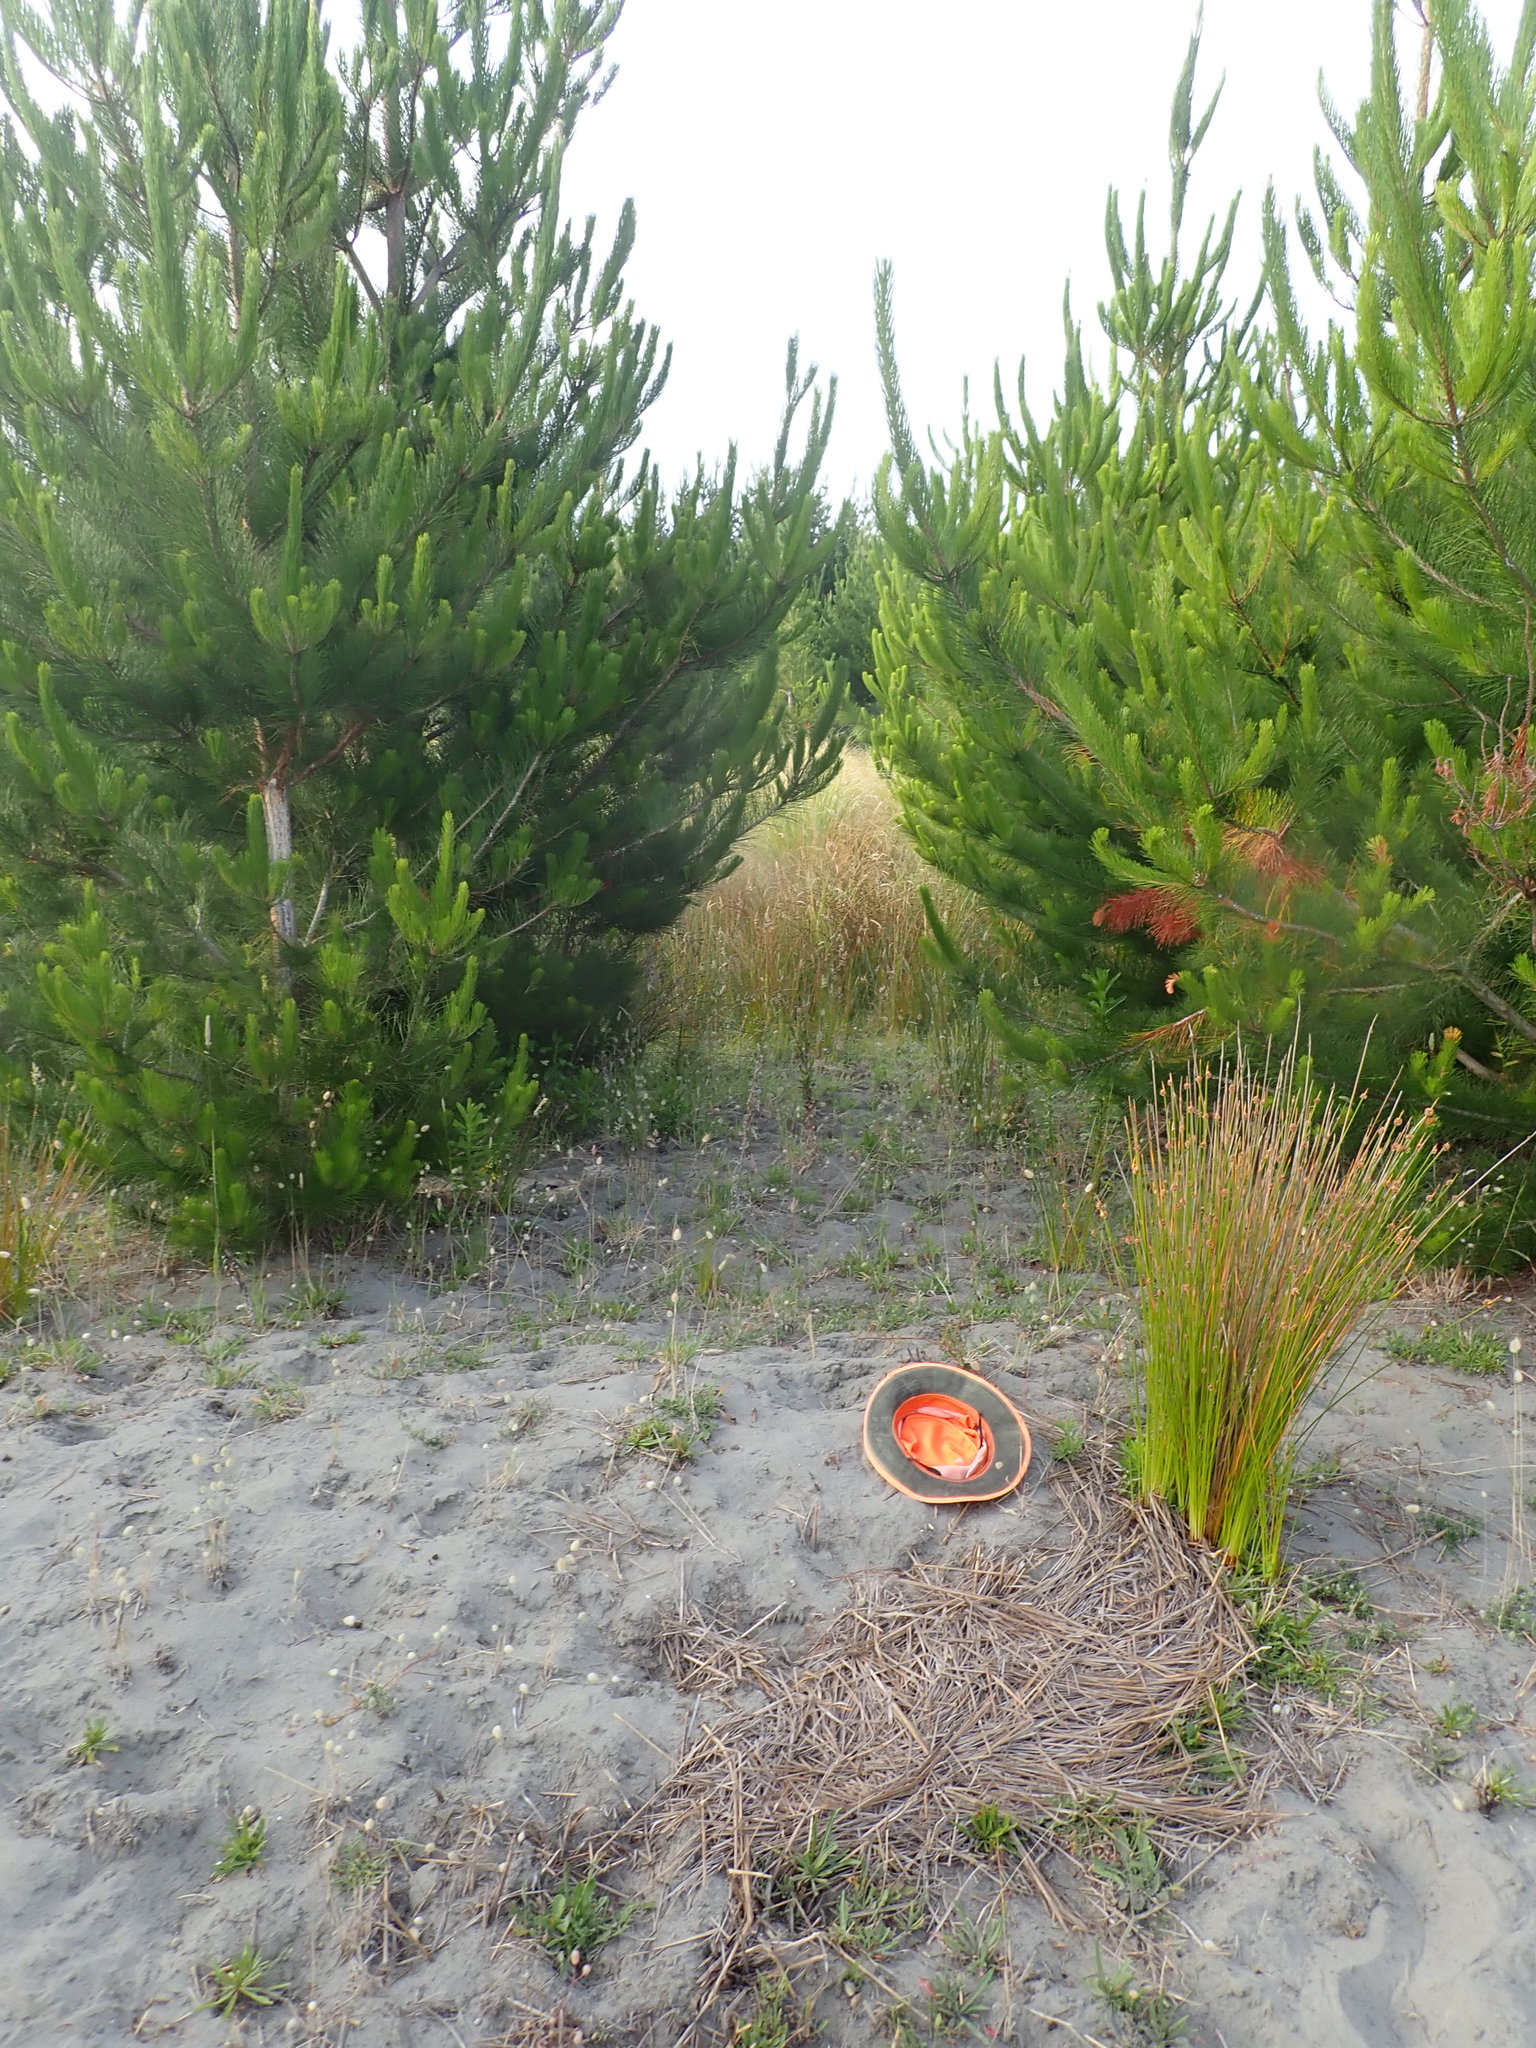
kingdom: Plantae
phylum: Tracheophyta
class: Magnoliopsida
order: Gentianales
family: Rubiaceae
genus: Coprosma
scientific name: Coprosma acerosa
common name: Sand coprosma
